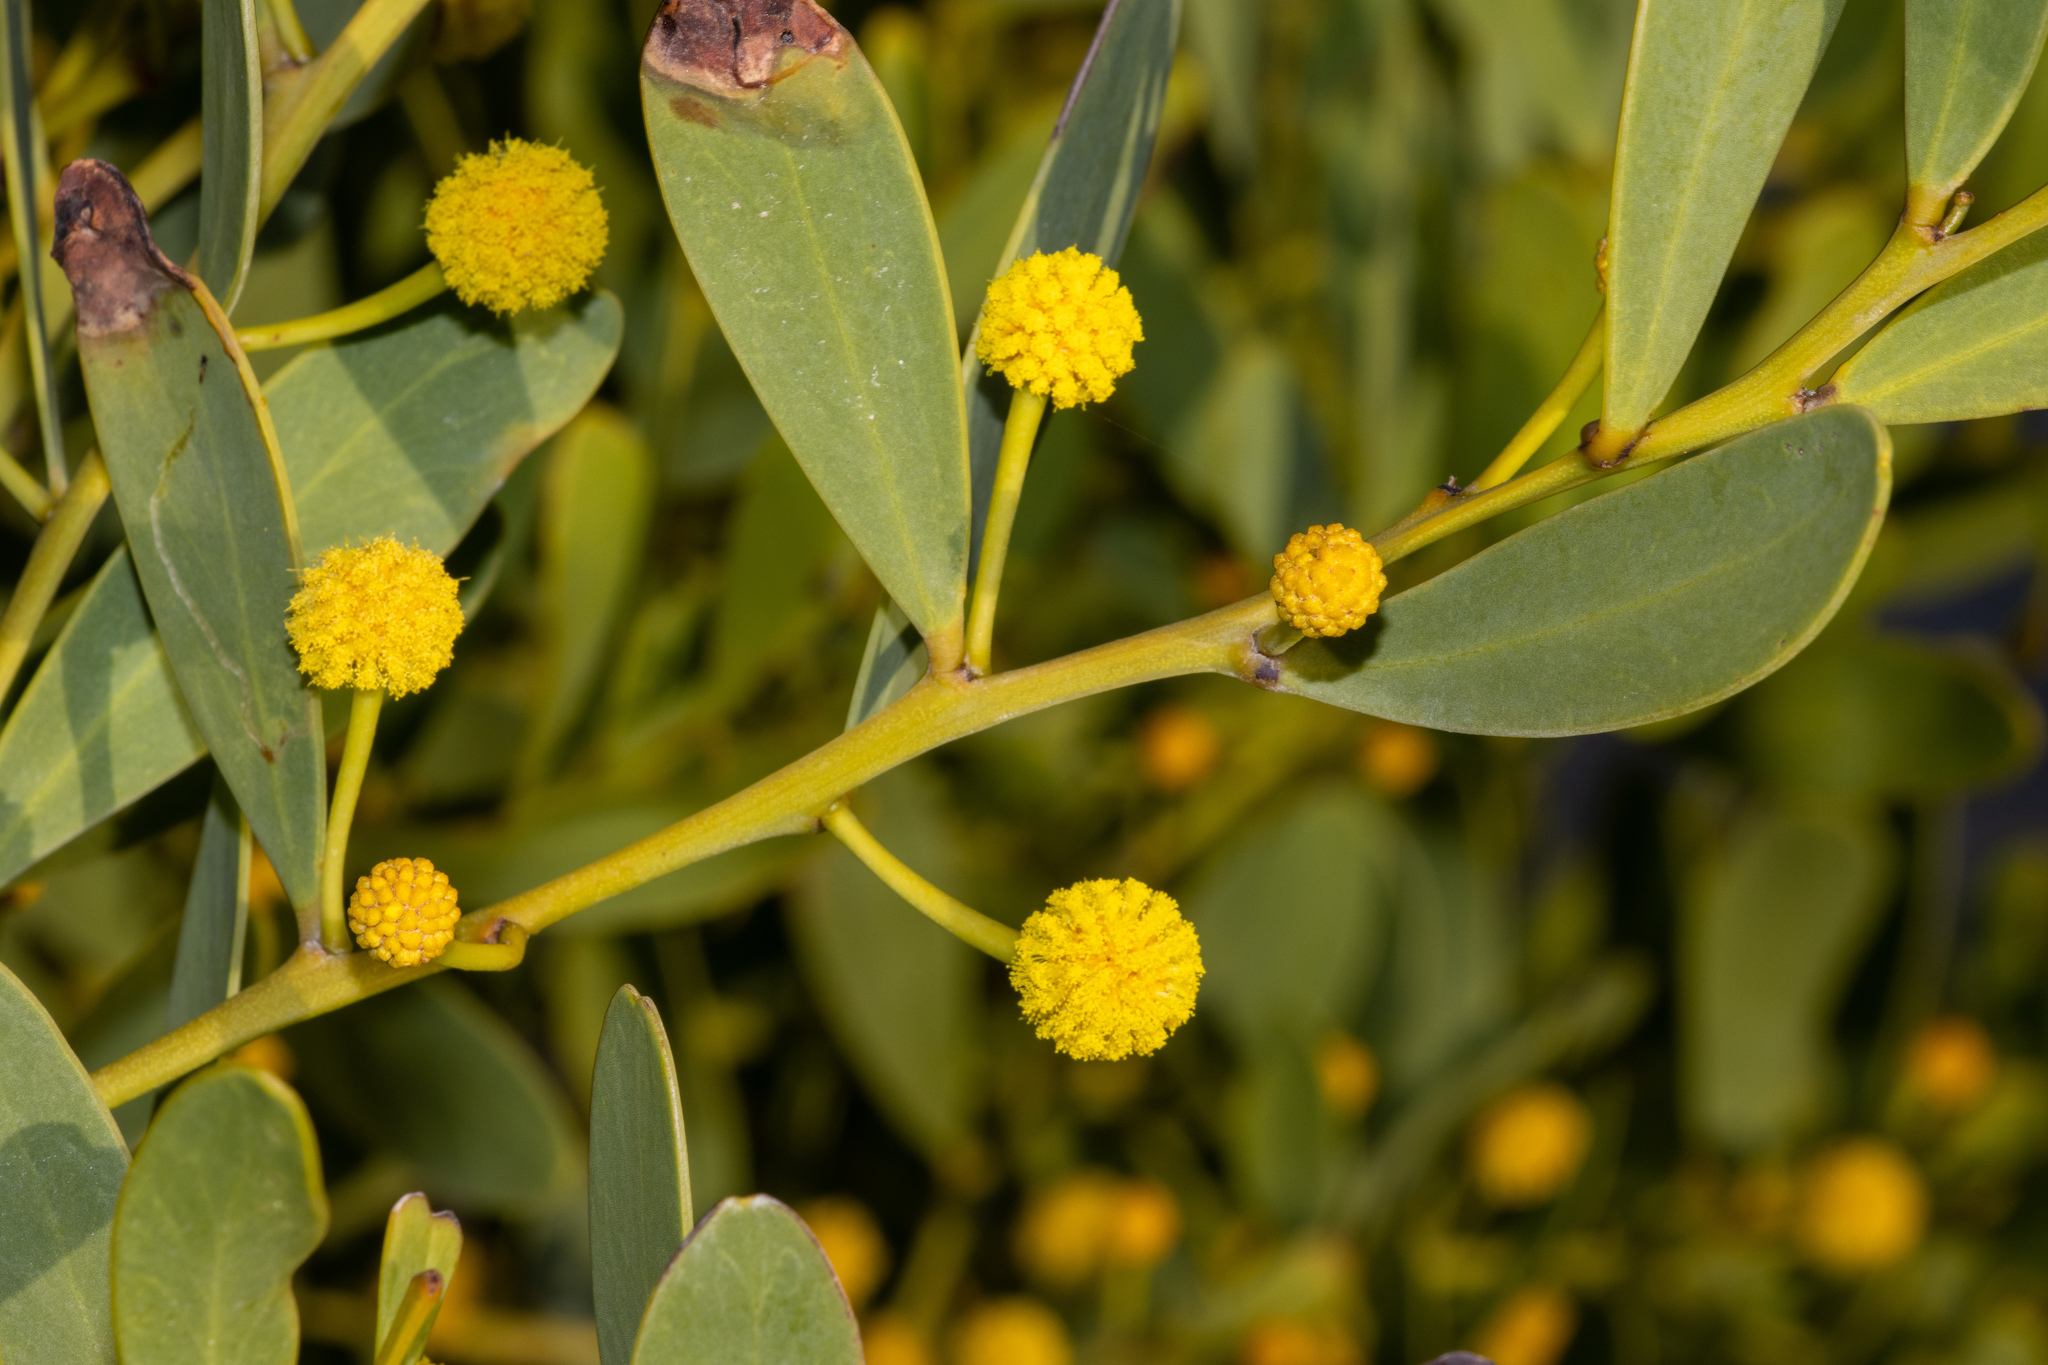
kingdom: Plantae
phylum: Tracheophyta
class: Magnoliopsida
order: Fabales
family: Fabaceae
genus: Acacia
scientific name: Acacia anceps
